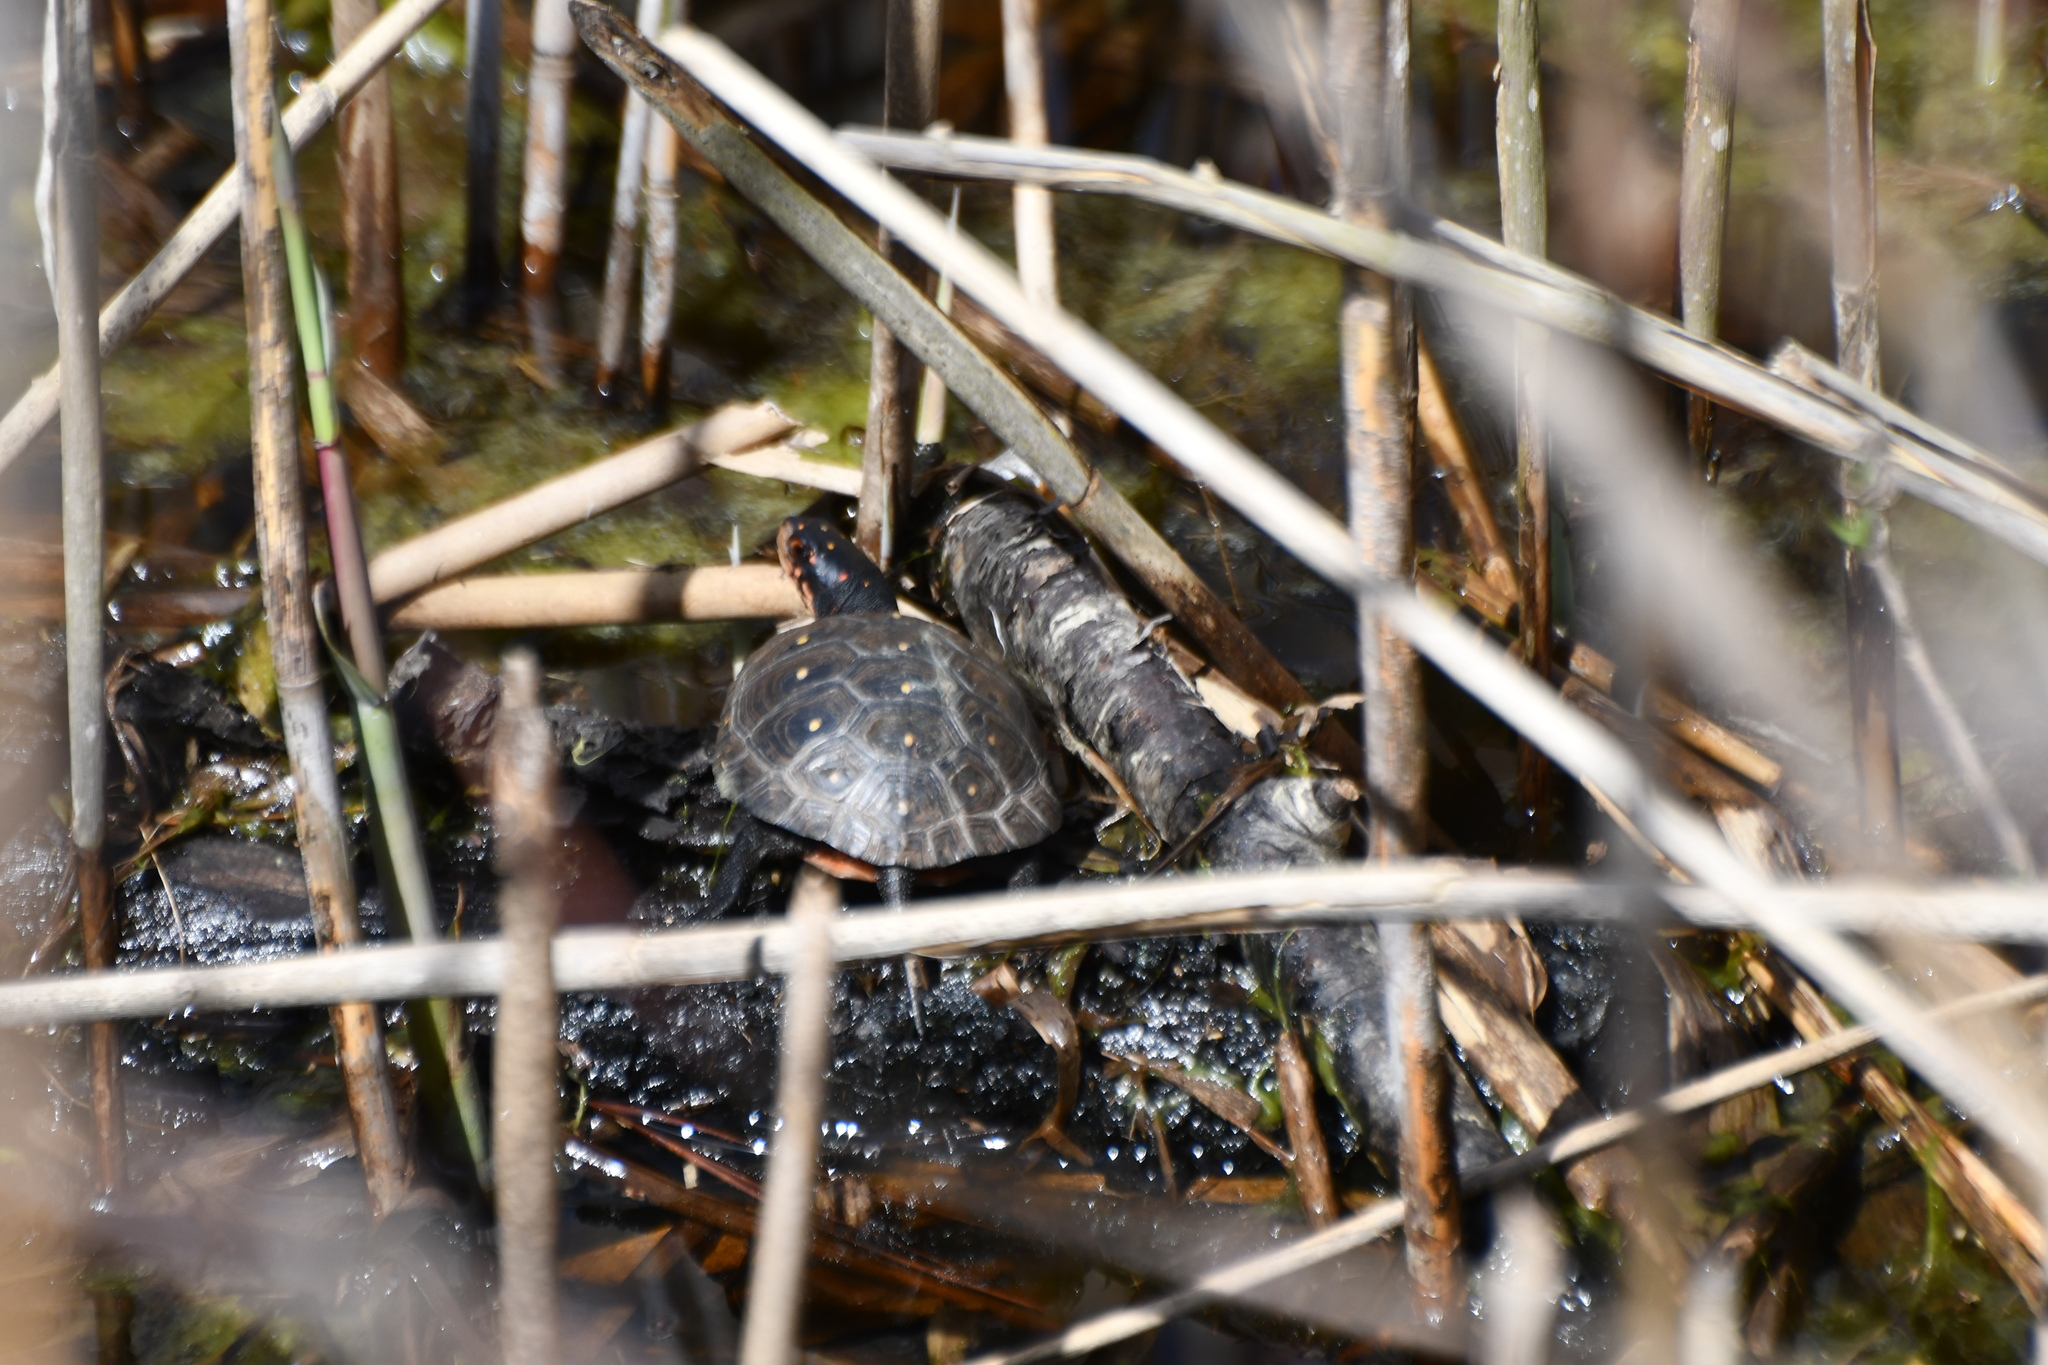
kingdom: Animalia
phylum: Chordata
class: Testudines
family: Emydidae
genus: Clemmys
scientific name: Clemmys guttata
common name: Spotted turtle
